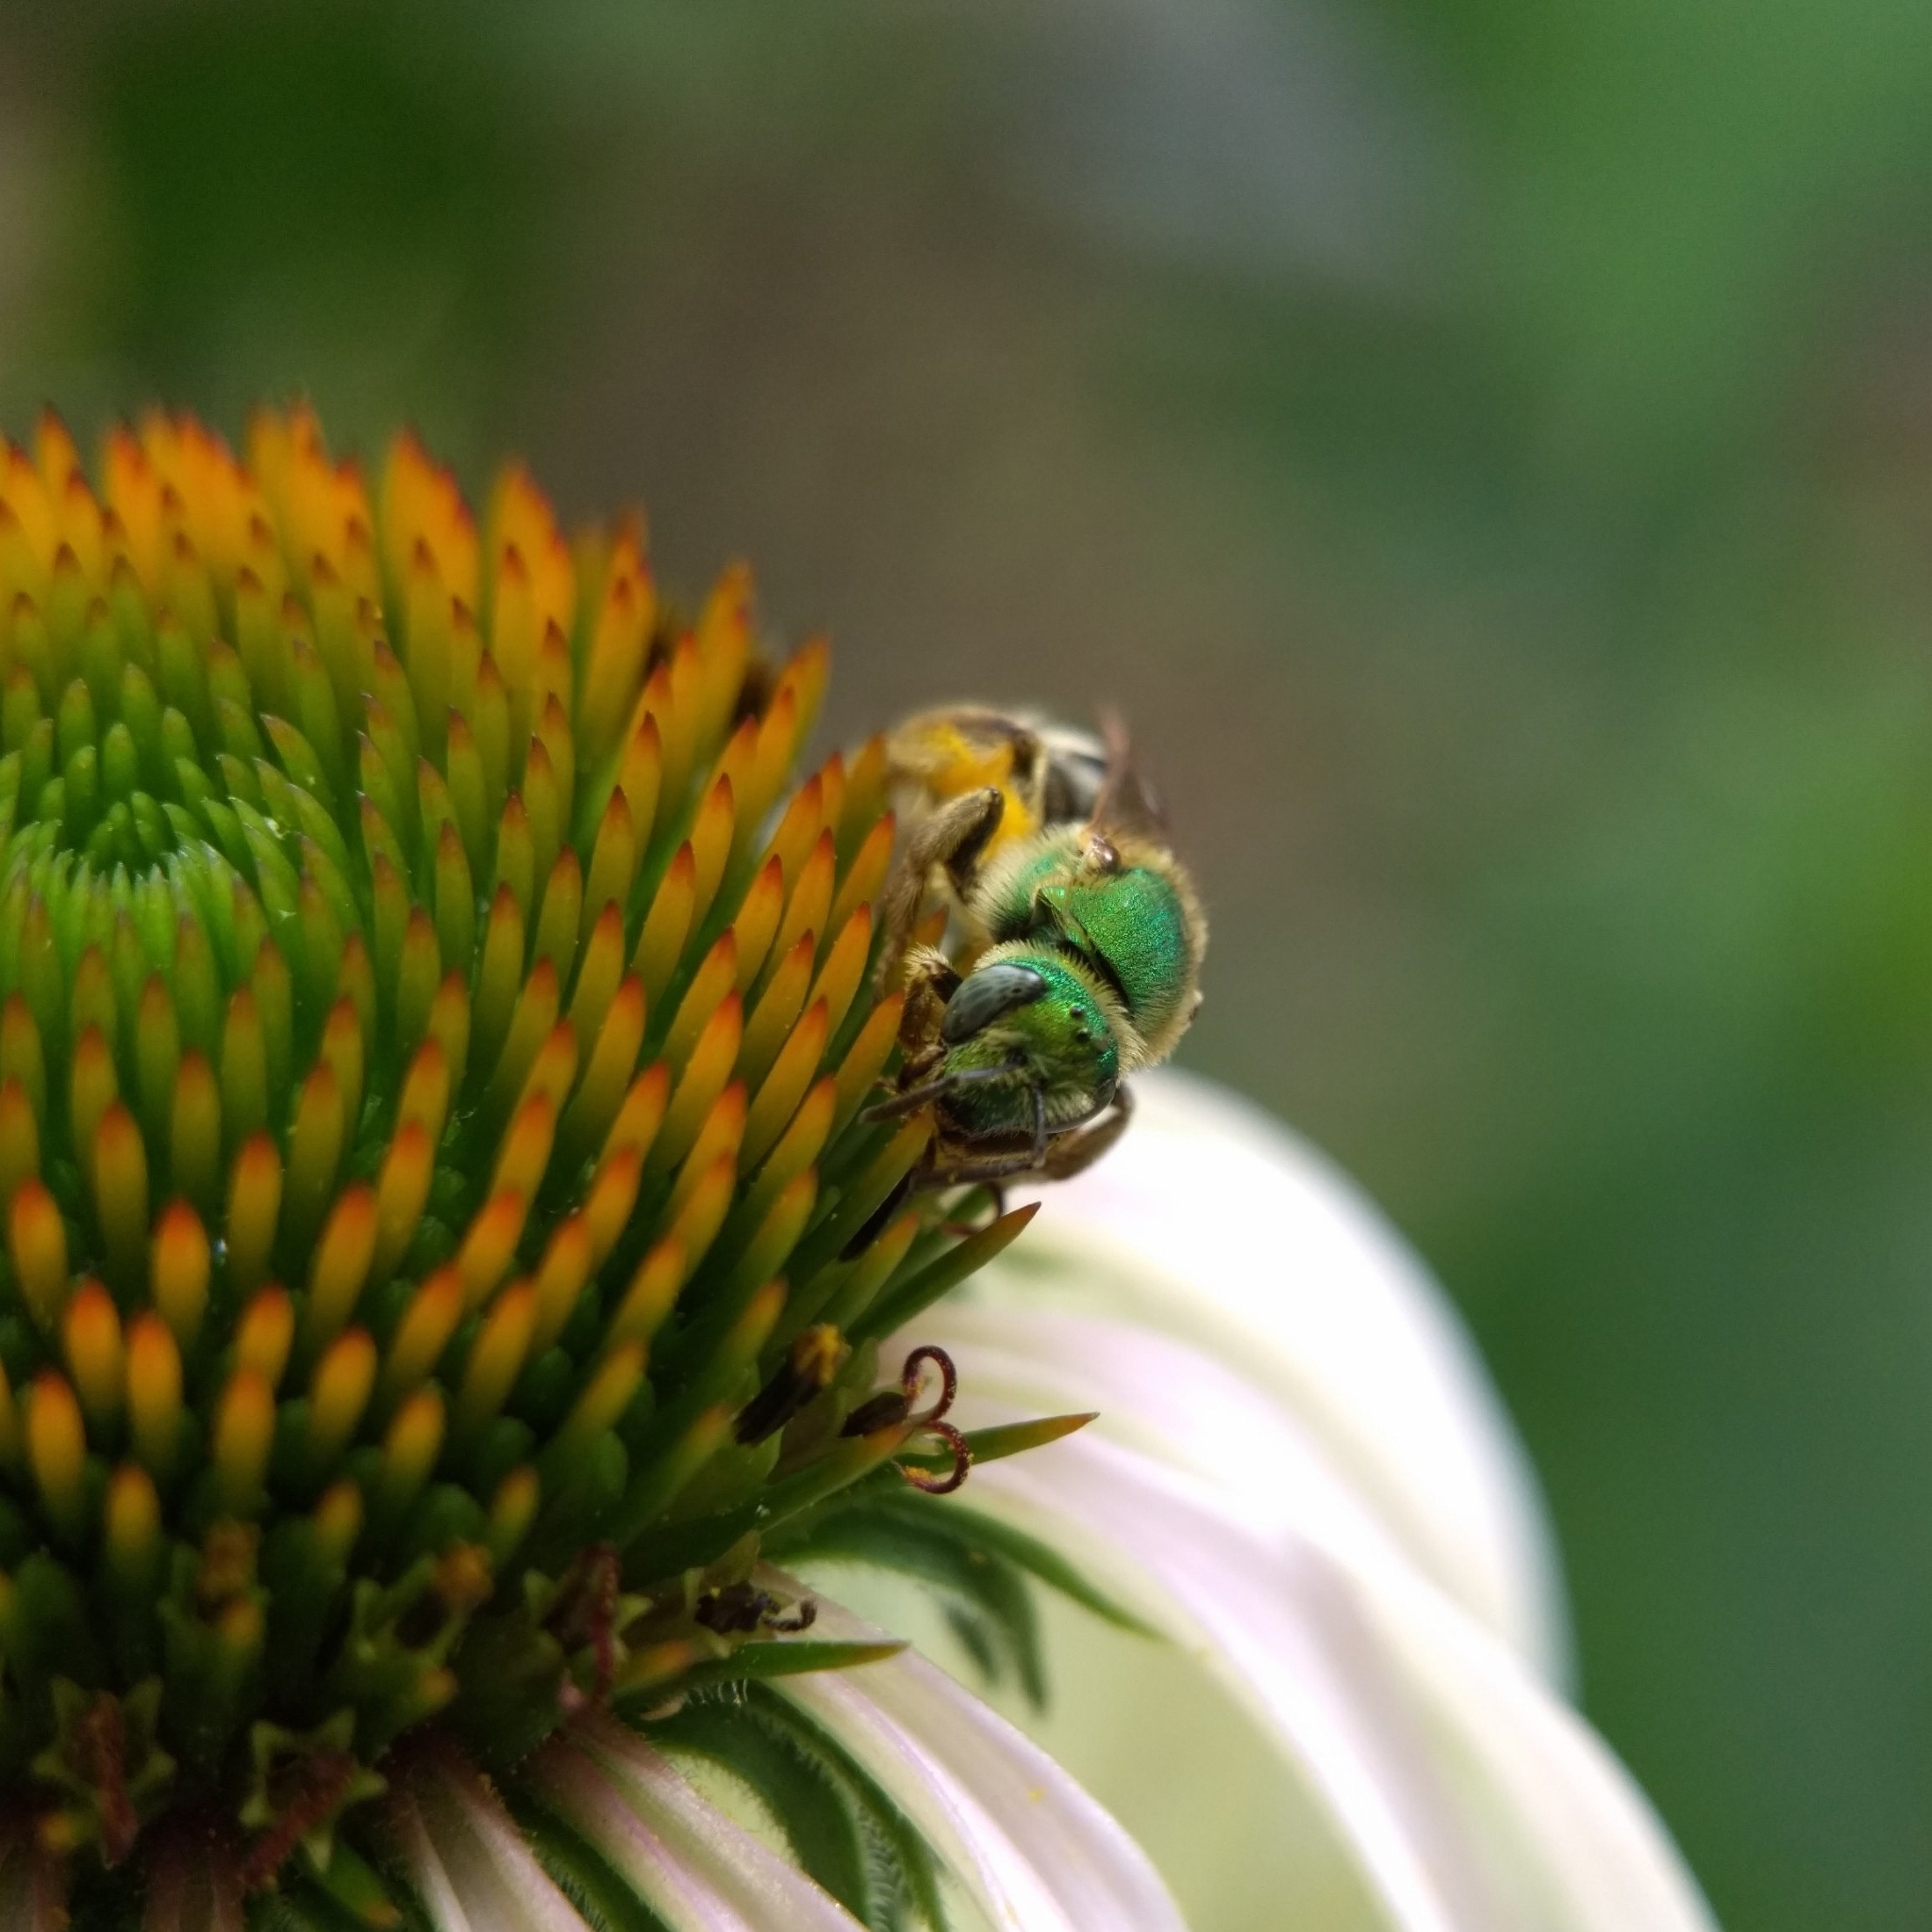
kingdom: Animalia
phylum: Arthropoda
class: Insecta
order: Hymenoptera
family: Halictidae
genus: Agapostemon
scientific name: Agapostemon virescens
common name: Bicolored striped sweat bee
